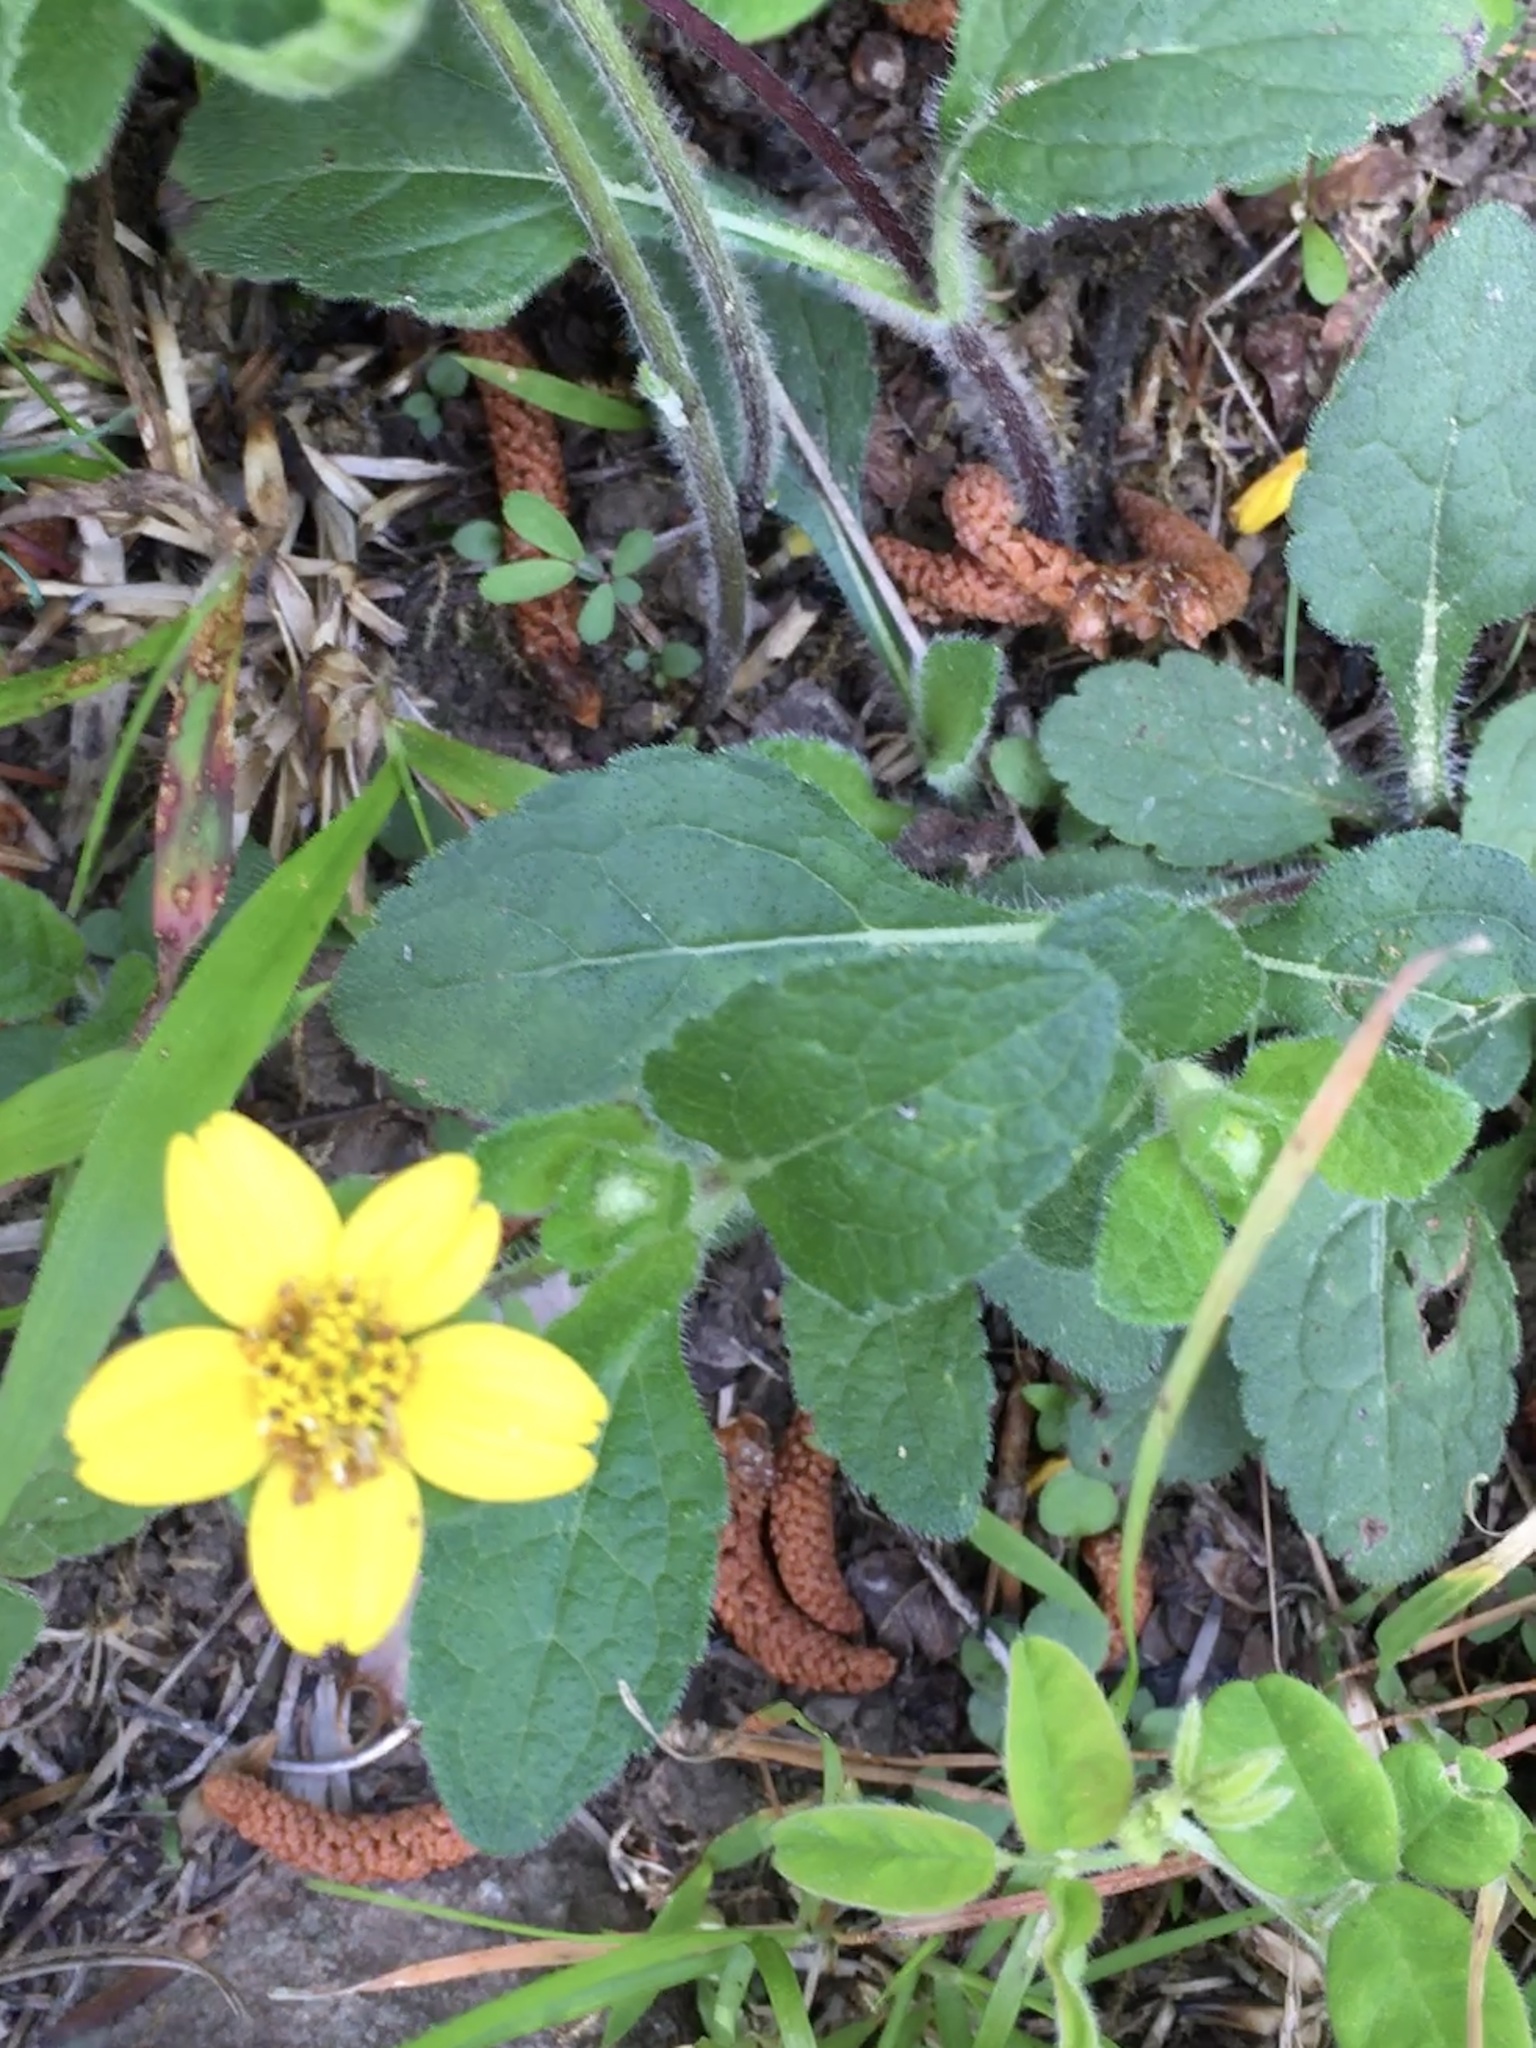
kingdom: Plantae
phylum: Tracheophyta
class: Magnoliopsida
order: Asterales
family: Asteraceae
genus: Chrysogonum
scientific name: Chrysogonum virginianum
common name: Golden-knee
